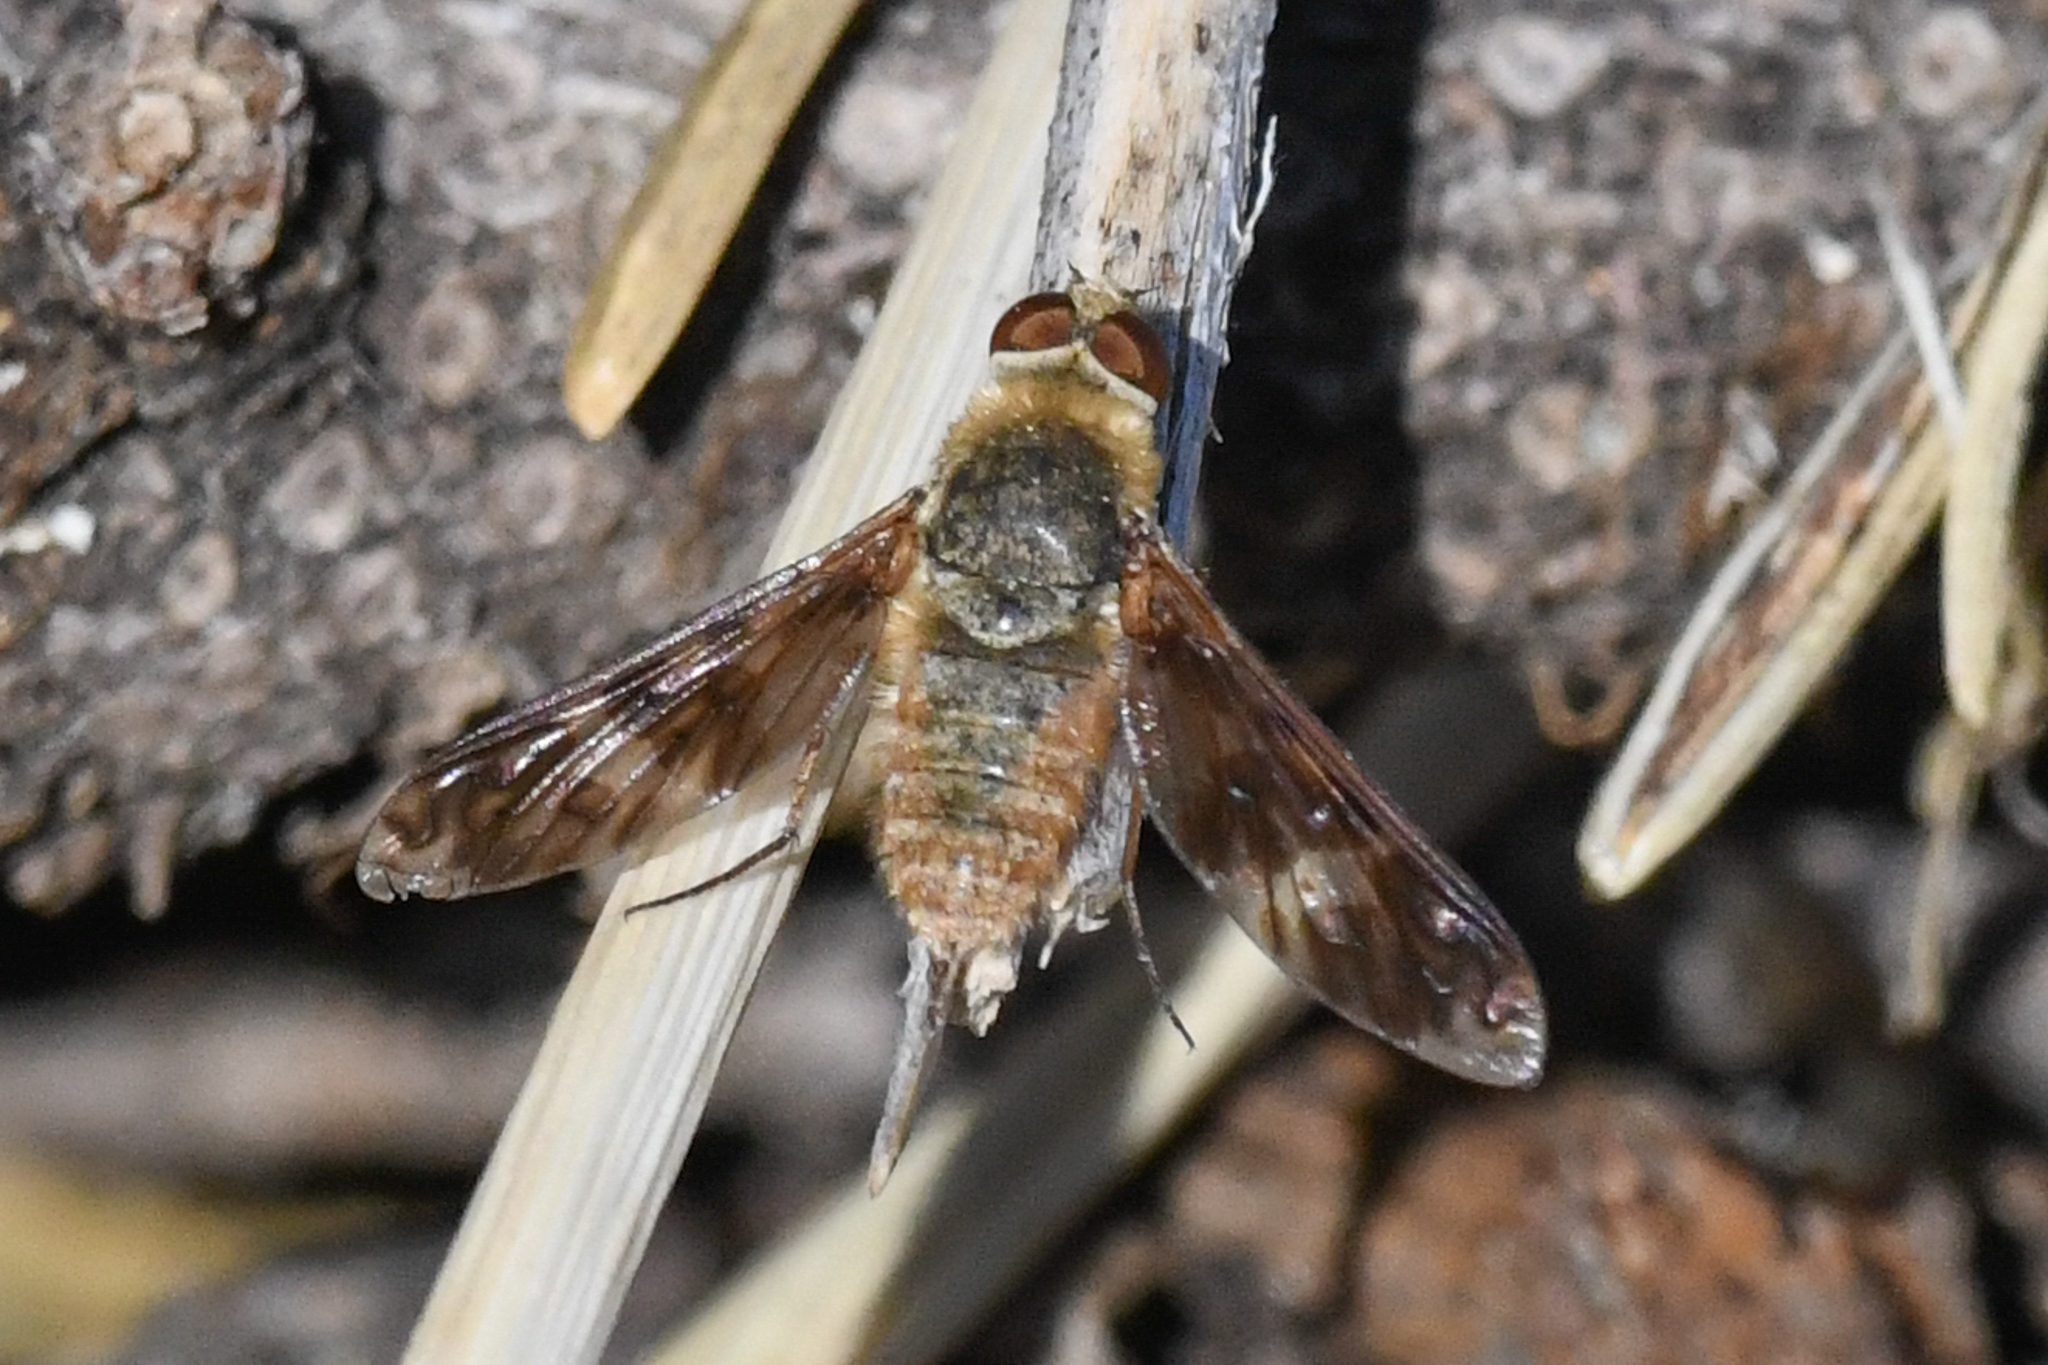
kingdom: Animalia
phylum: Arthropoda
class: Insecta
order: Diptera
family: Bombyliidae
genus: Dipalta
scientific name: Dipalta serpentina
